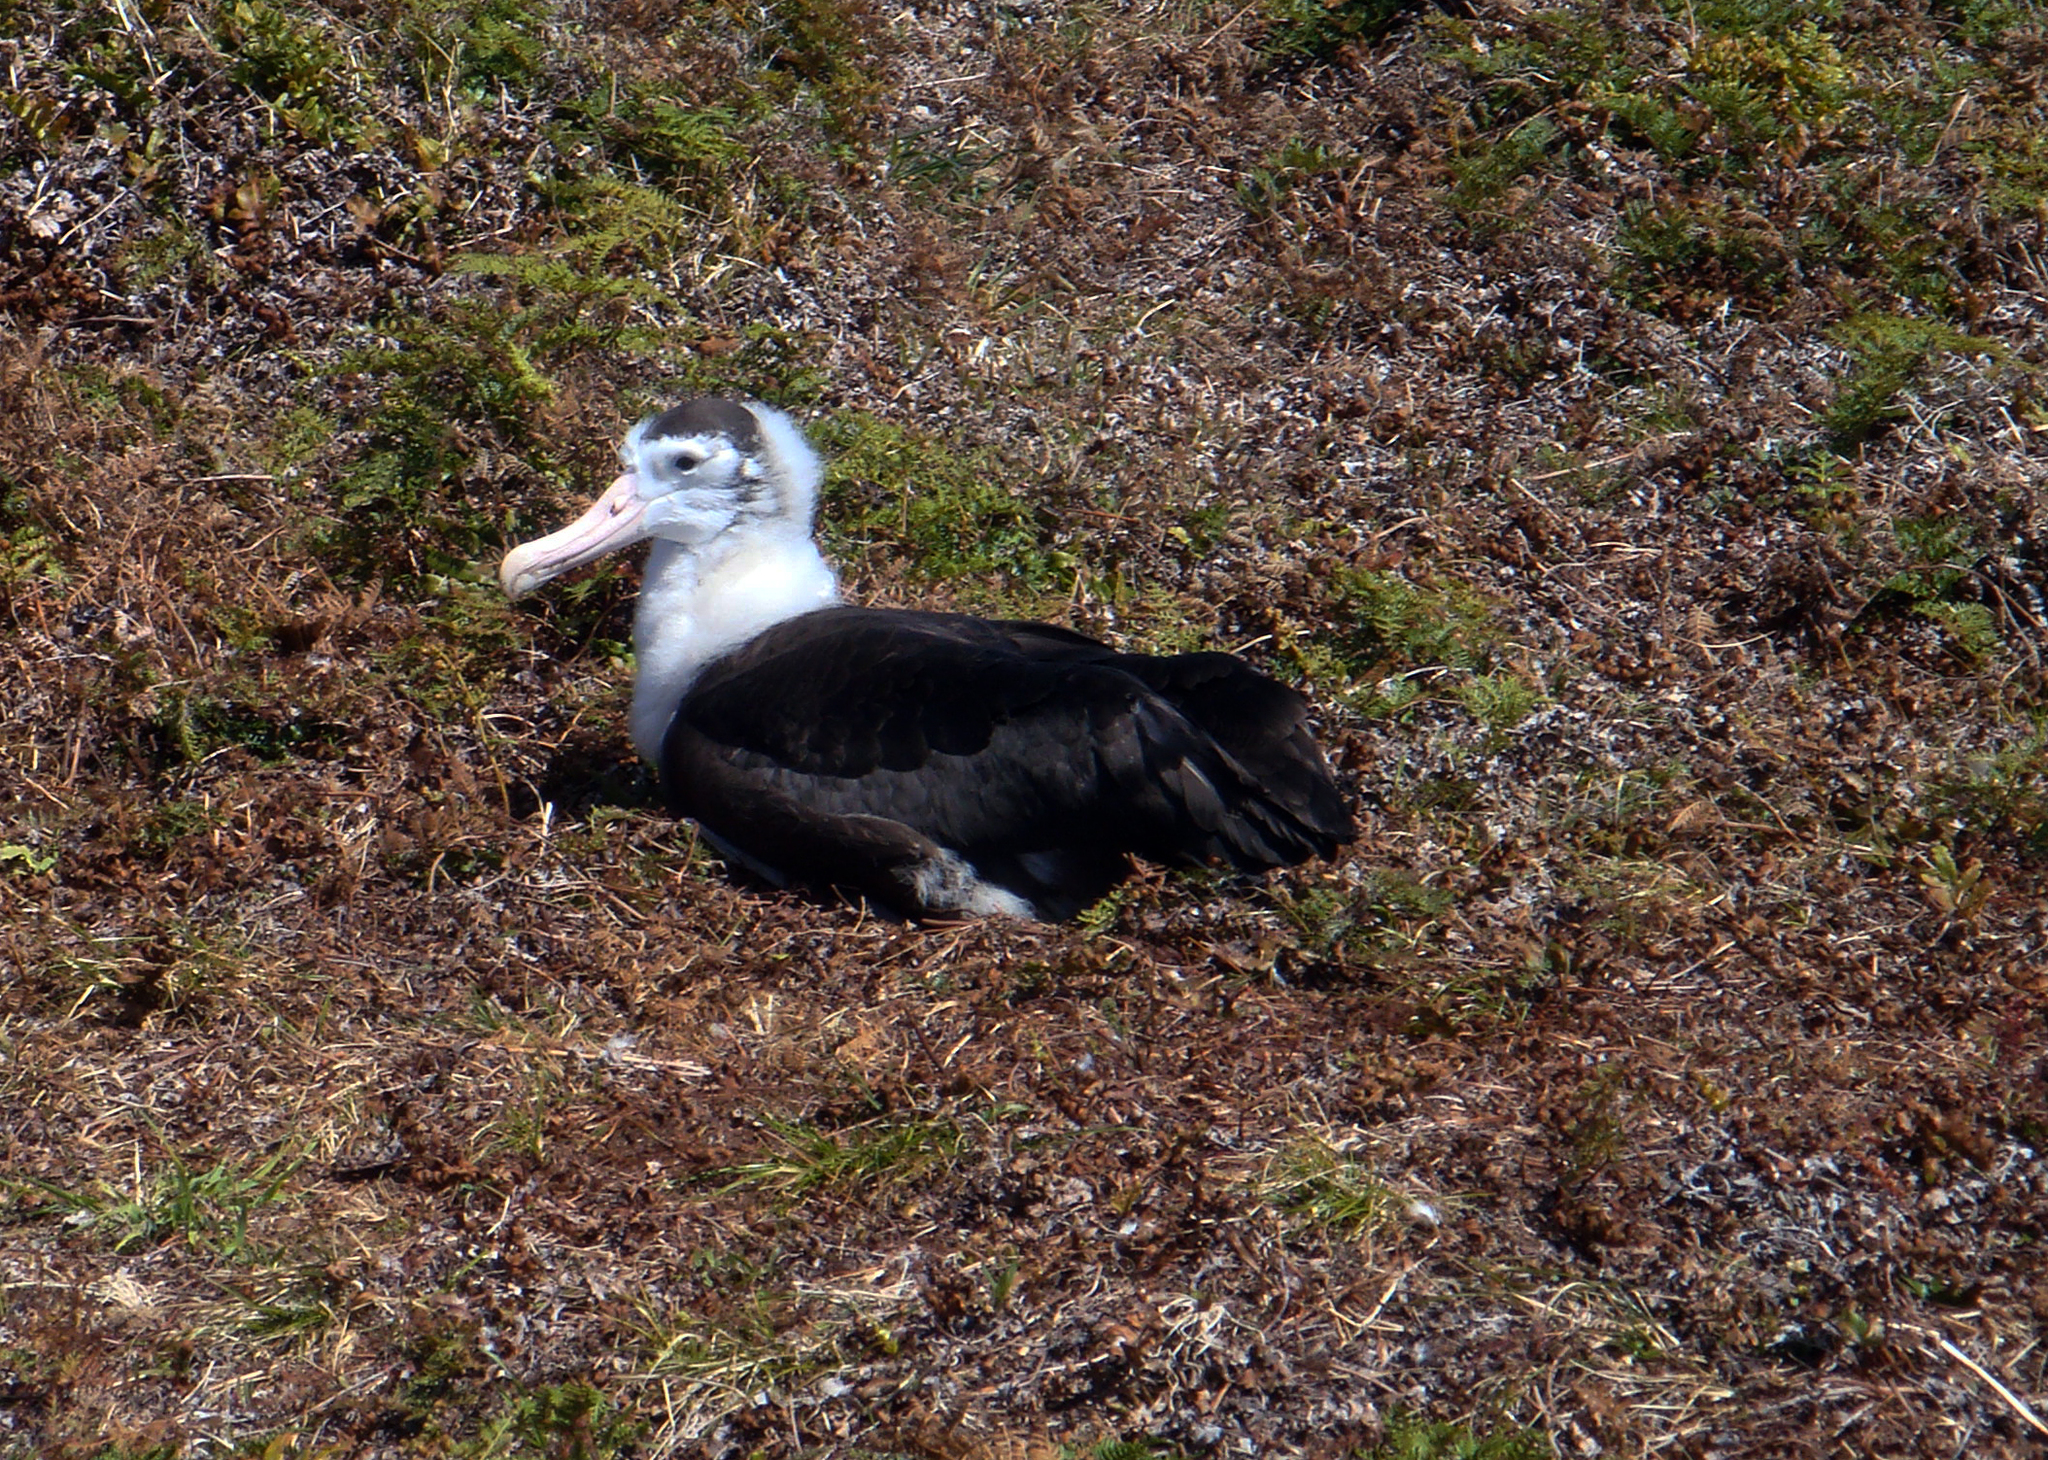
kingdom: Animalia
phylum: Chordata
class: Aves
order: Procellariiformes
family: Diomedeidae
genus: Diomedea
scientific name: Diomedea antipodensis
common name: Antipodean albatross
